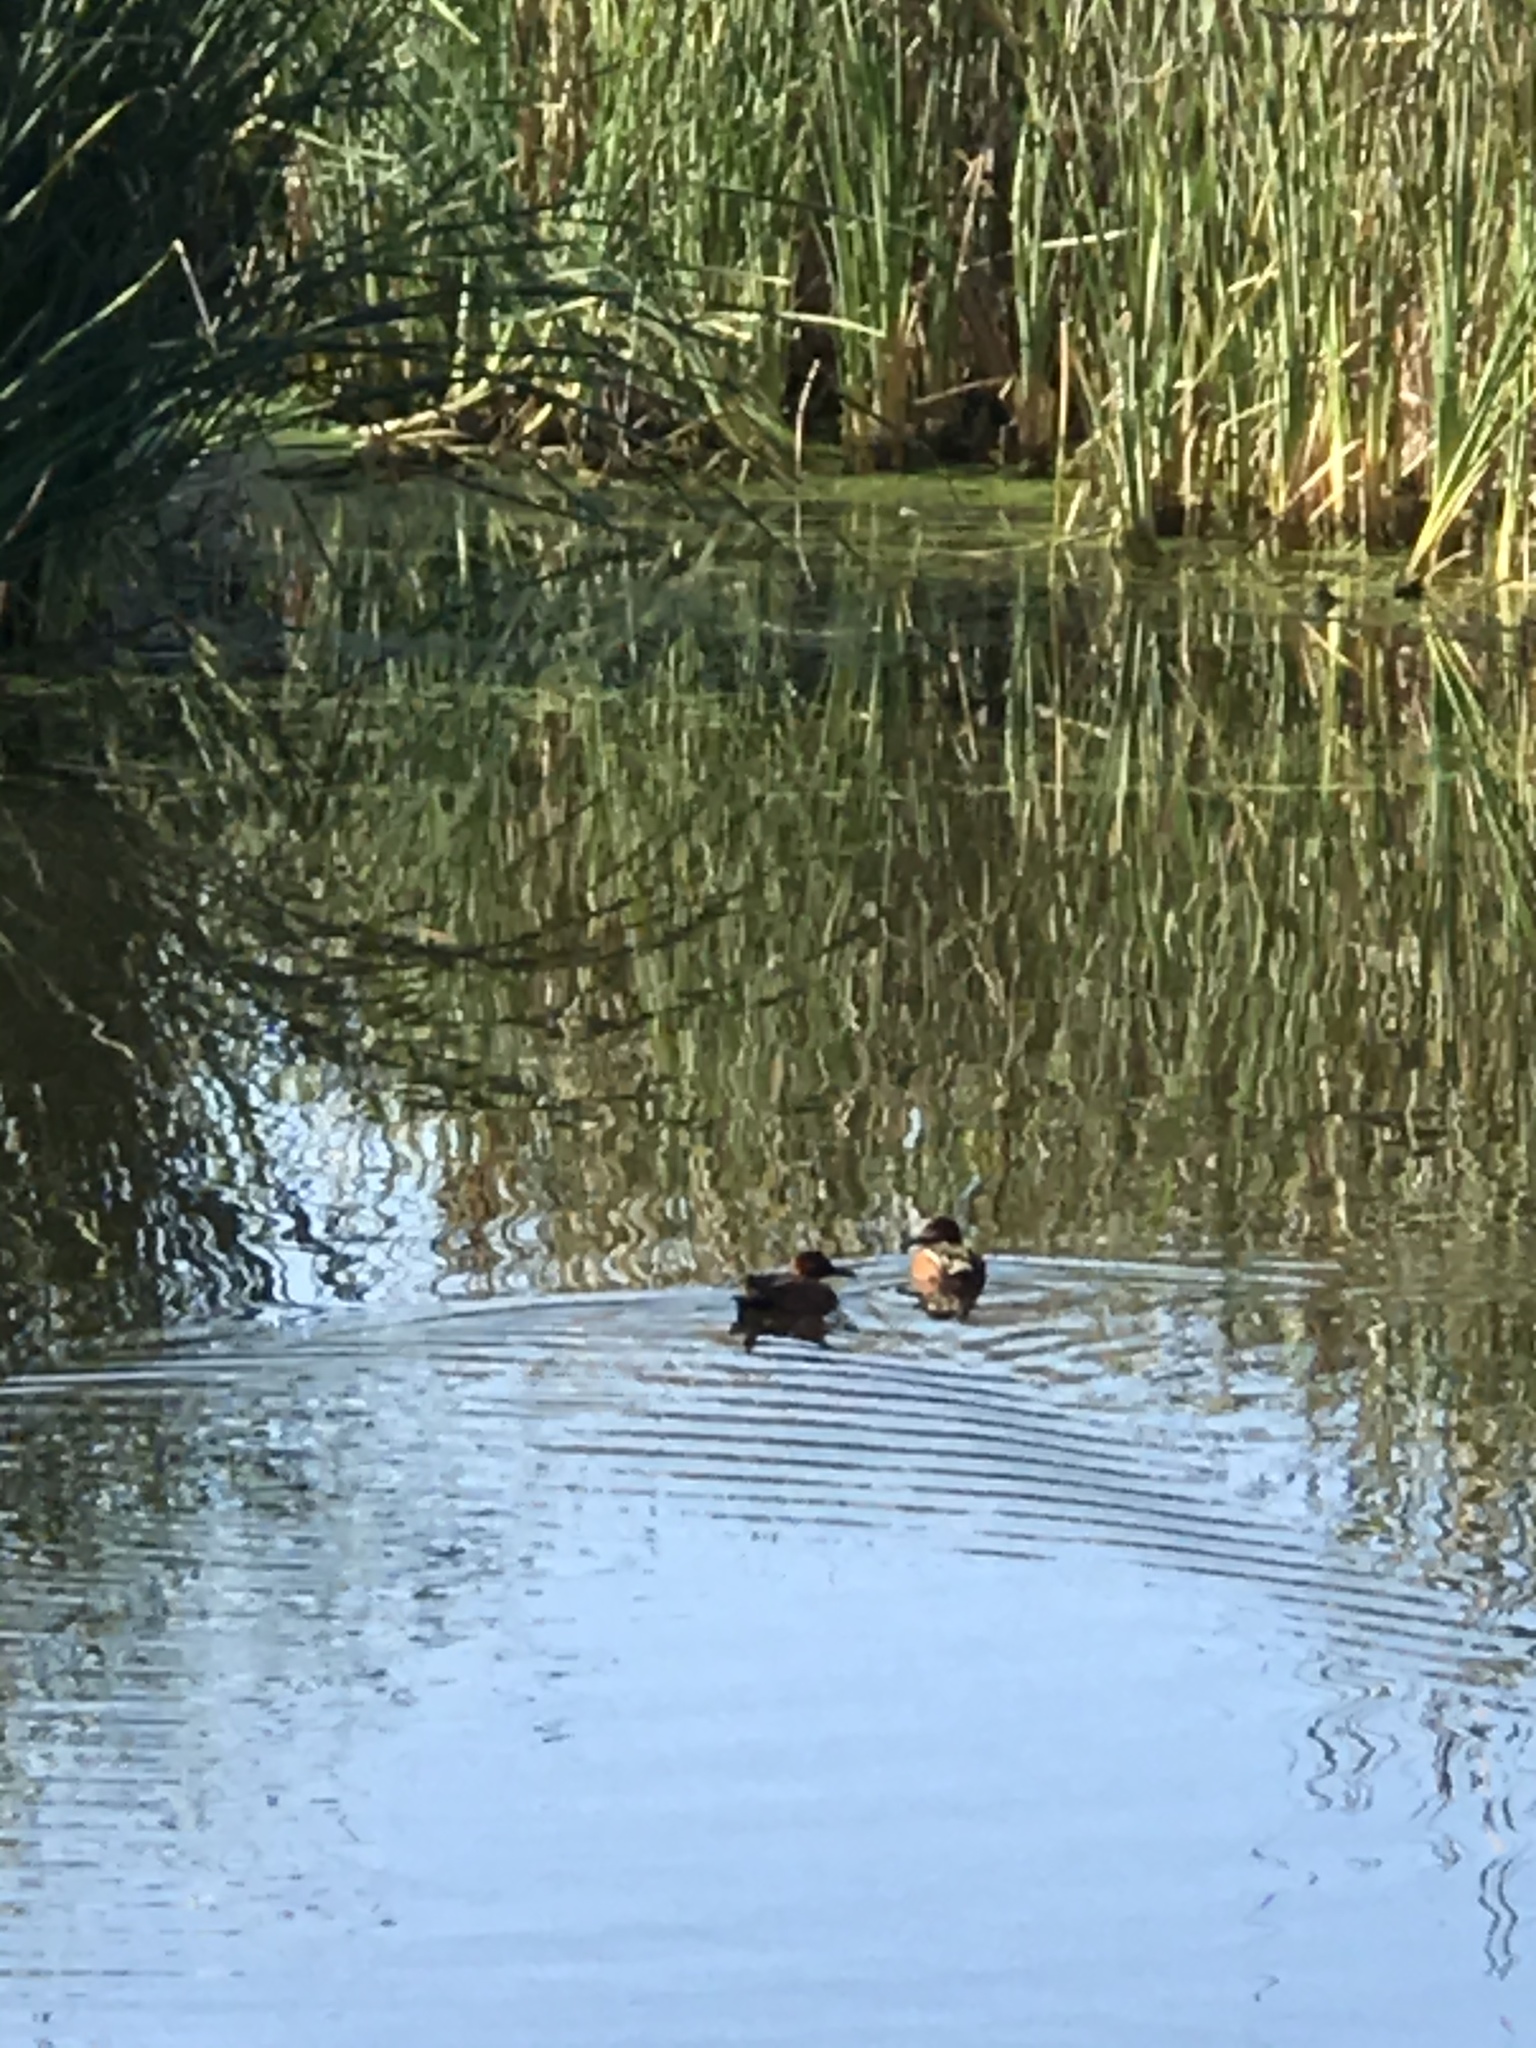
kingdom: Animalia
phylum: Chordata
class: Aves
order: Anseriformes
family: Anatidae
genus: Spatula
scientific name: Spatula cyanoptera
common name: Cinnamon teal
